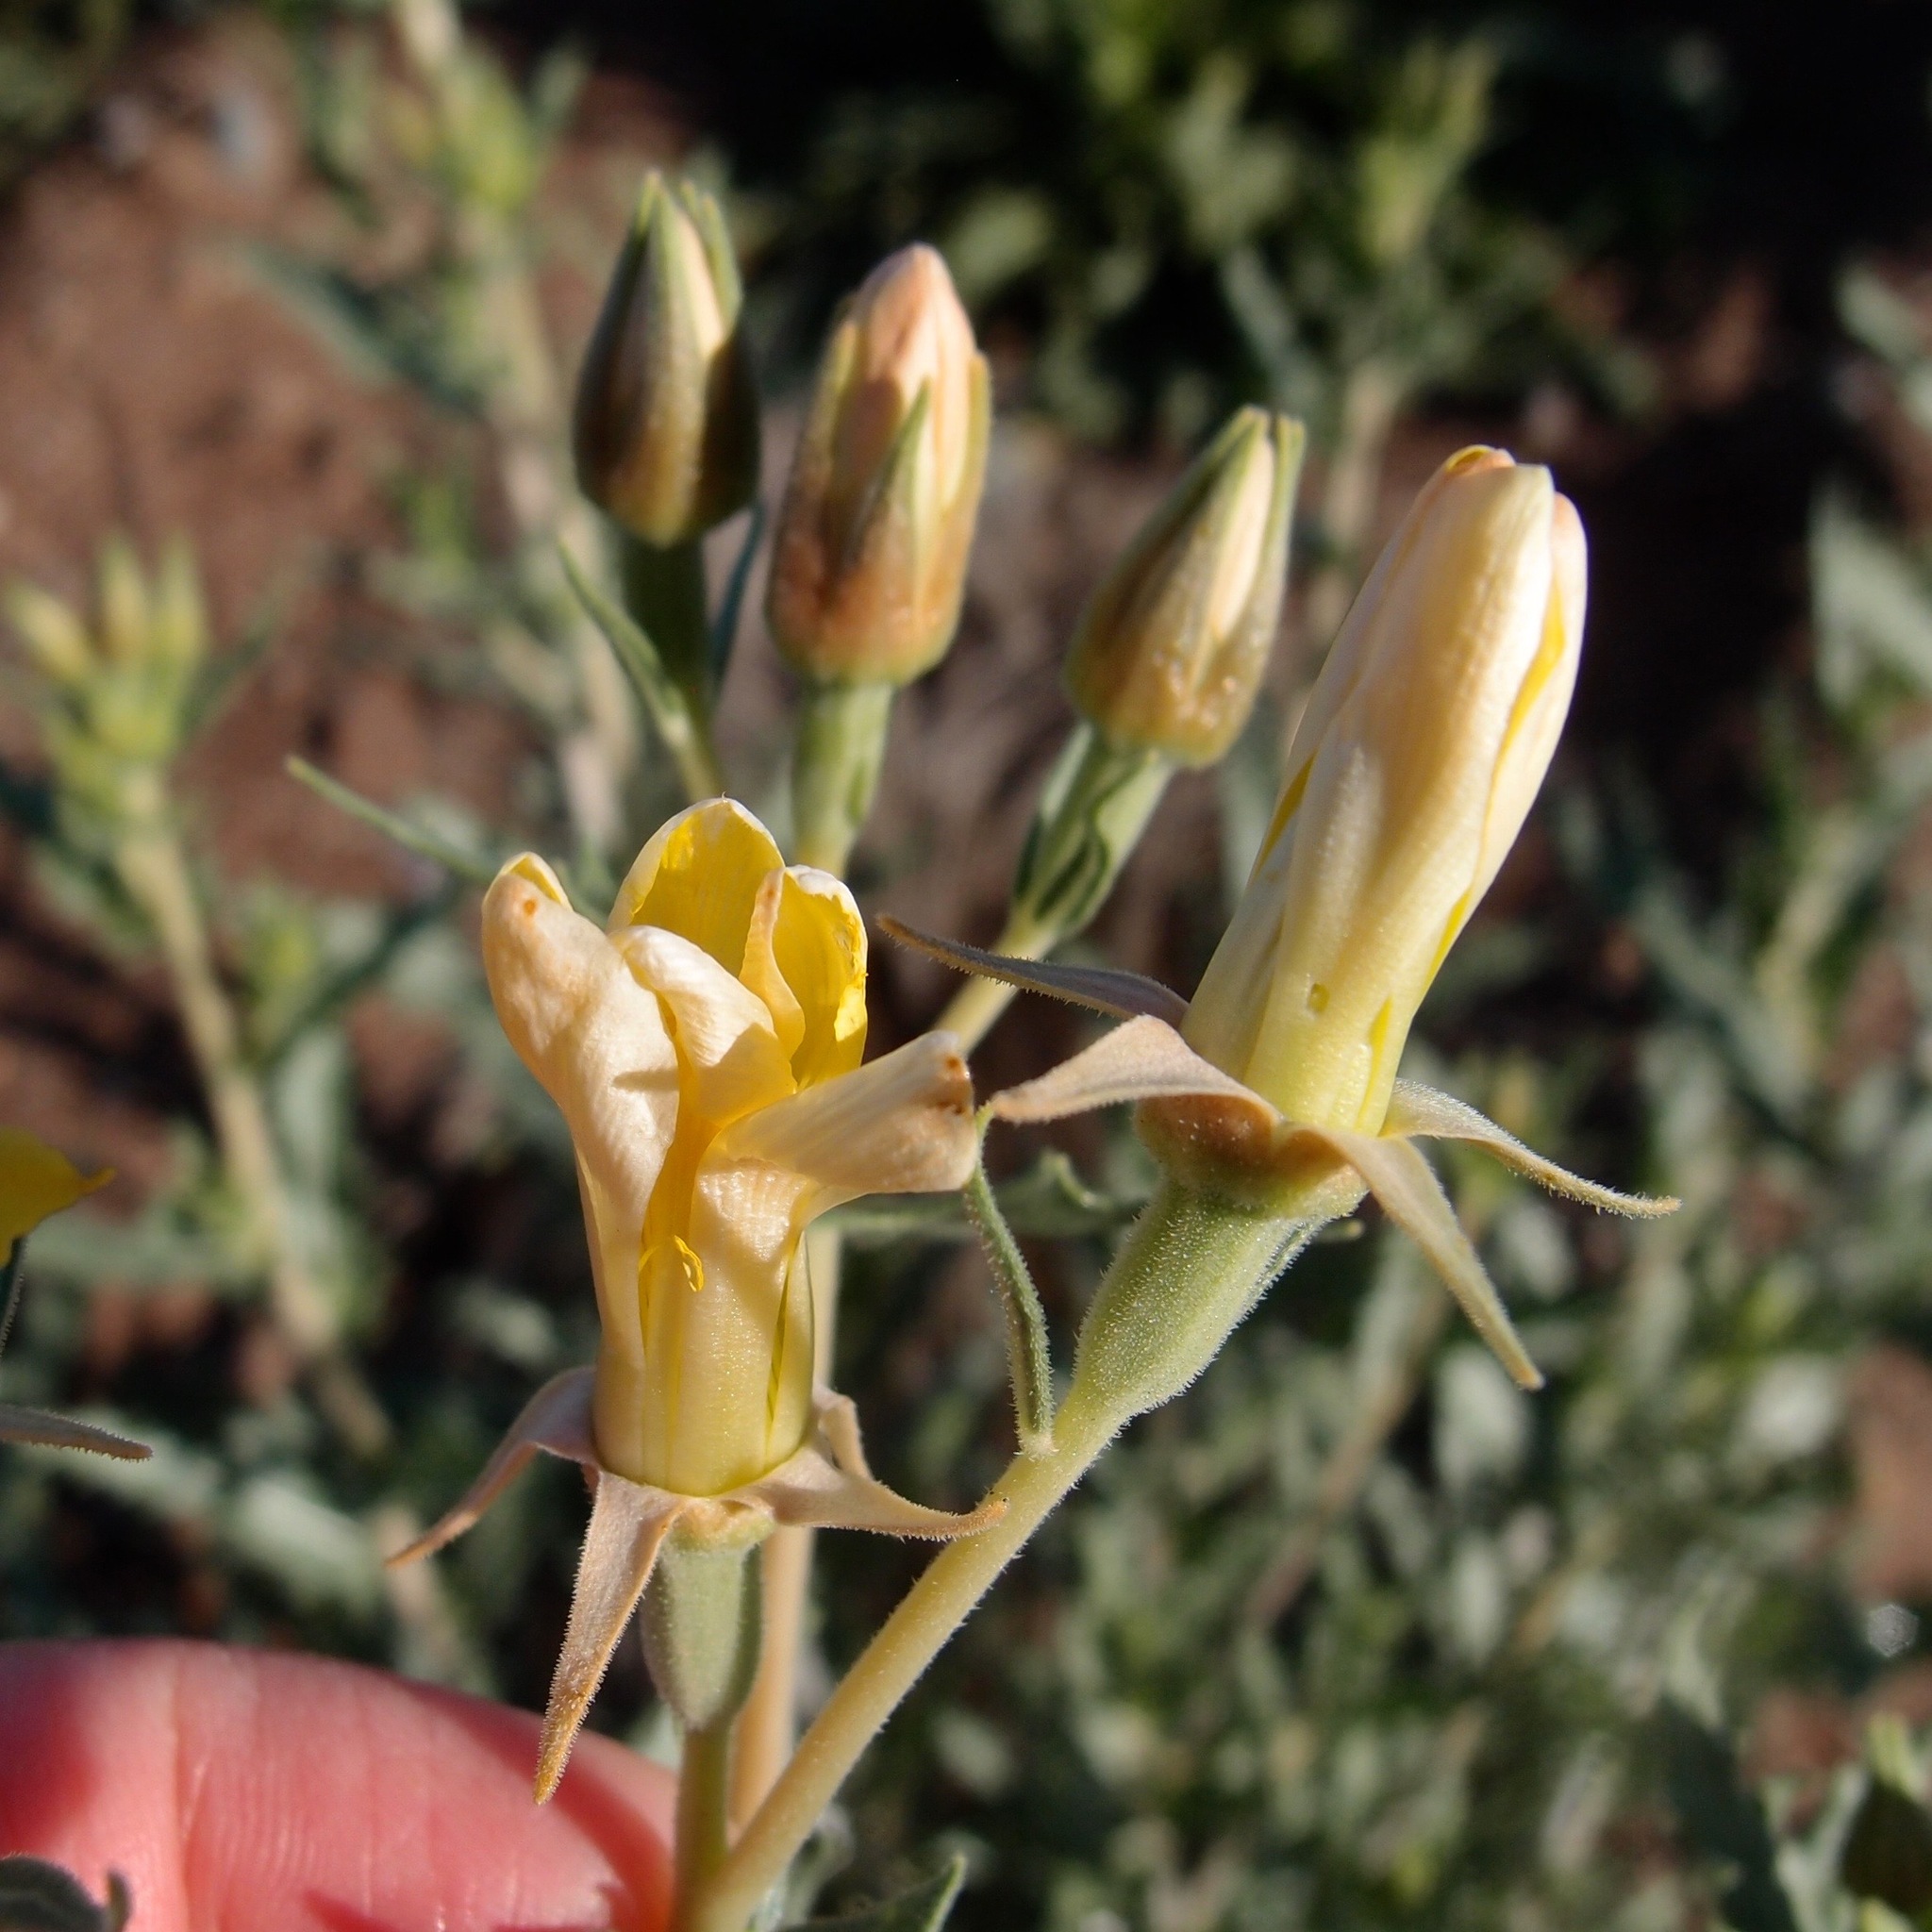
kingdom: Plantae
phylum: Tracheophyta
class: Magnoliopsida
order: Cornales
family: Loasaceae
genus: Mentzelia
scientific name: Mentzelia longiloba
